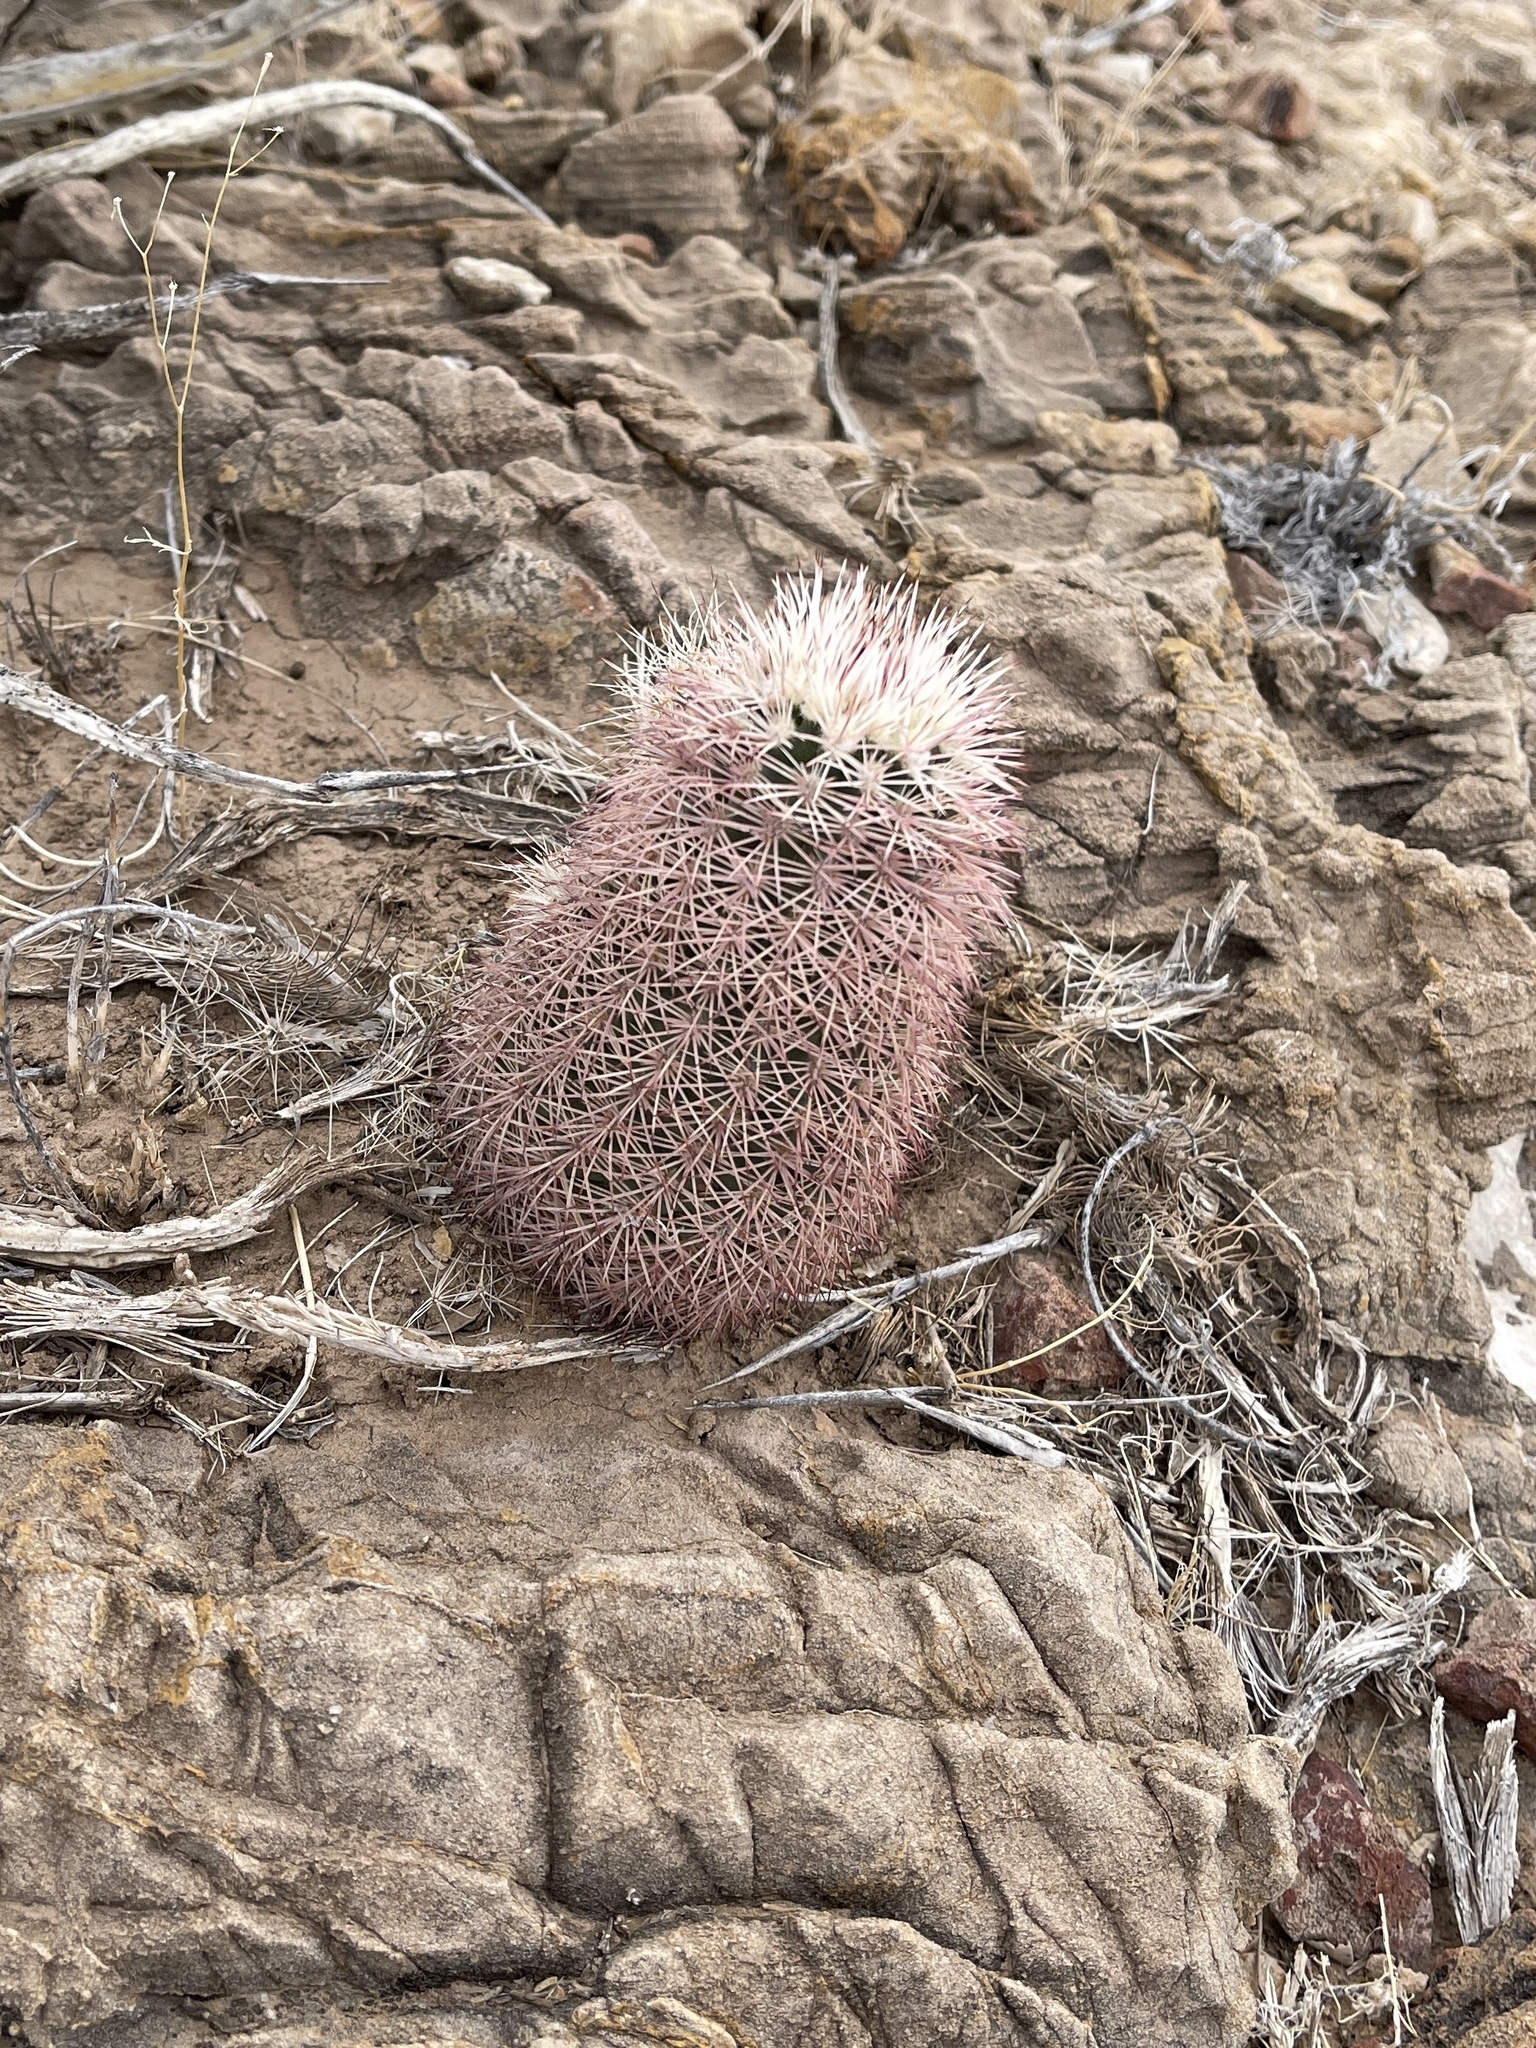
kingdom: Plantae
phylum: Tracheophyta
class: Magnoliopsida
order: Caryophyllales
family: Cactaceae
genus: Echinocereus
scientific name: Echinocereus dasyacanthus
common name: Spiny hedgehog cactus
